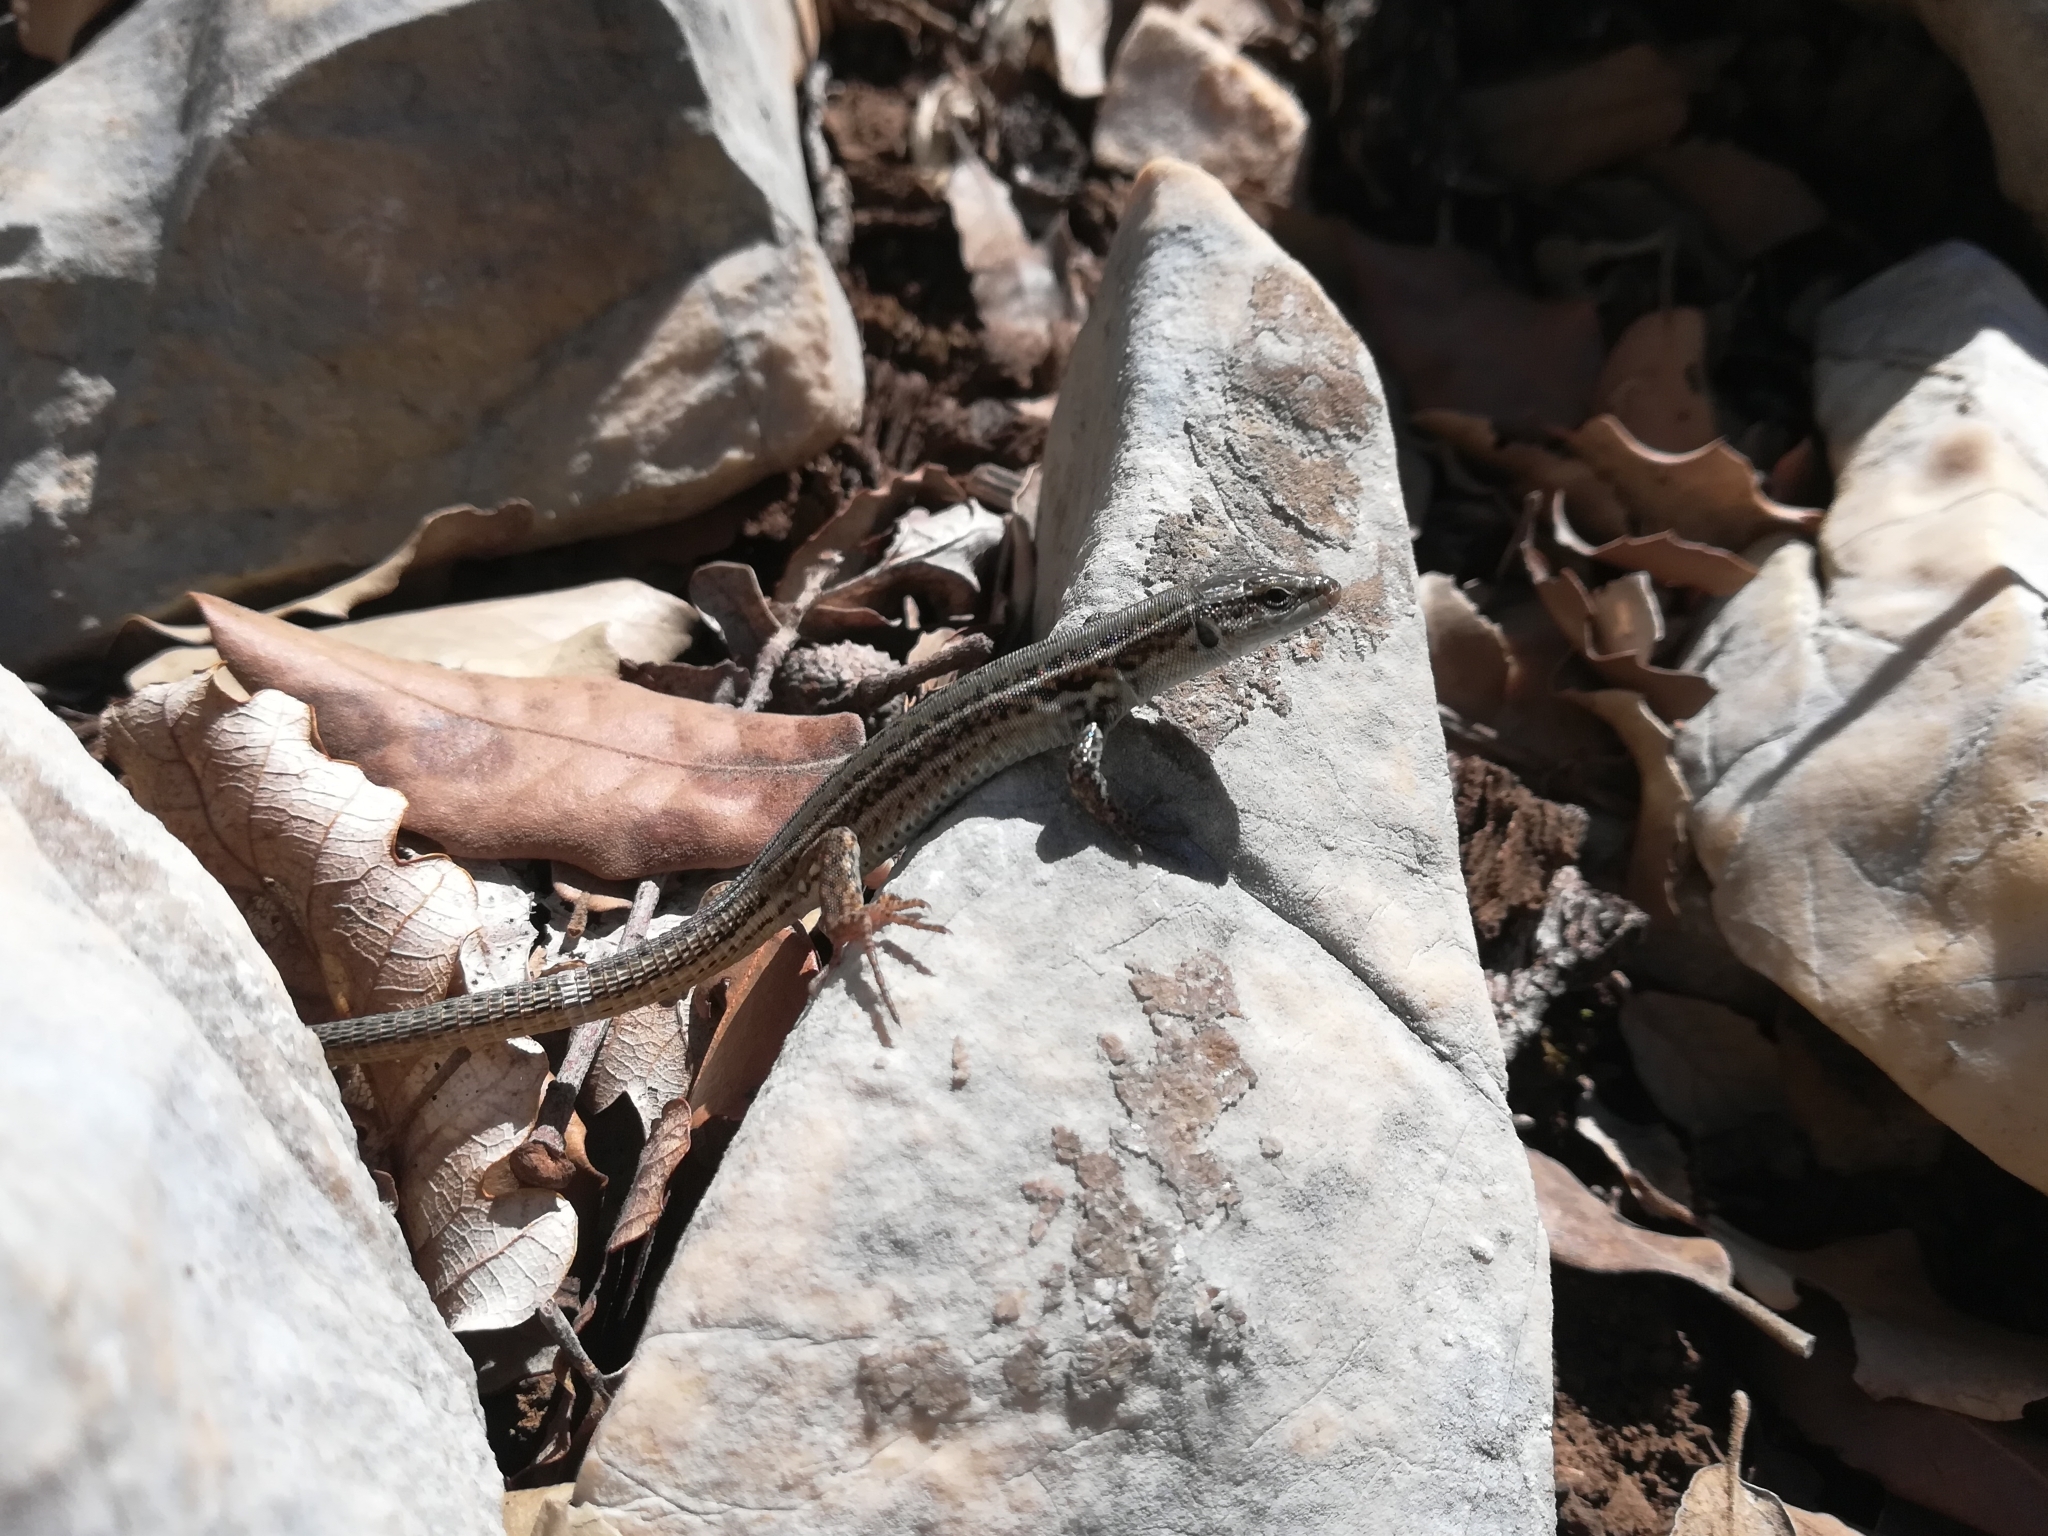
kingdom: Animalia
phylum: Chordata
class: Squamata
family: Lacertidae
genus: Podarcis
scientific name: Podarcis melisellensis
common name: Dalmatian wall lizard
